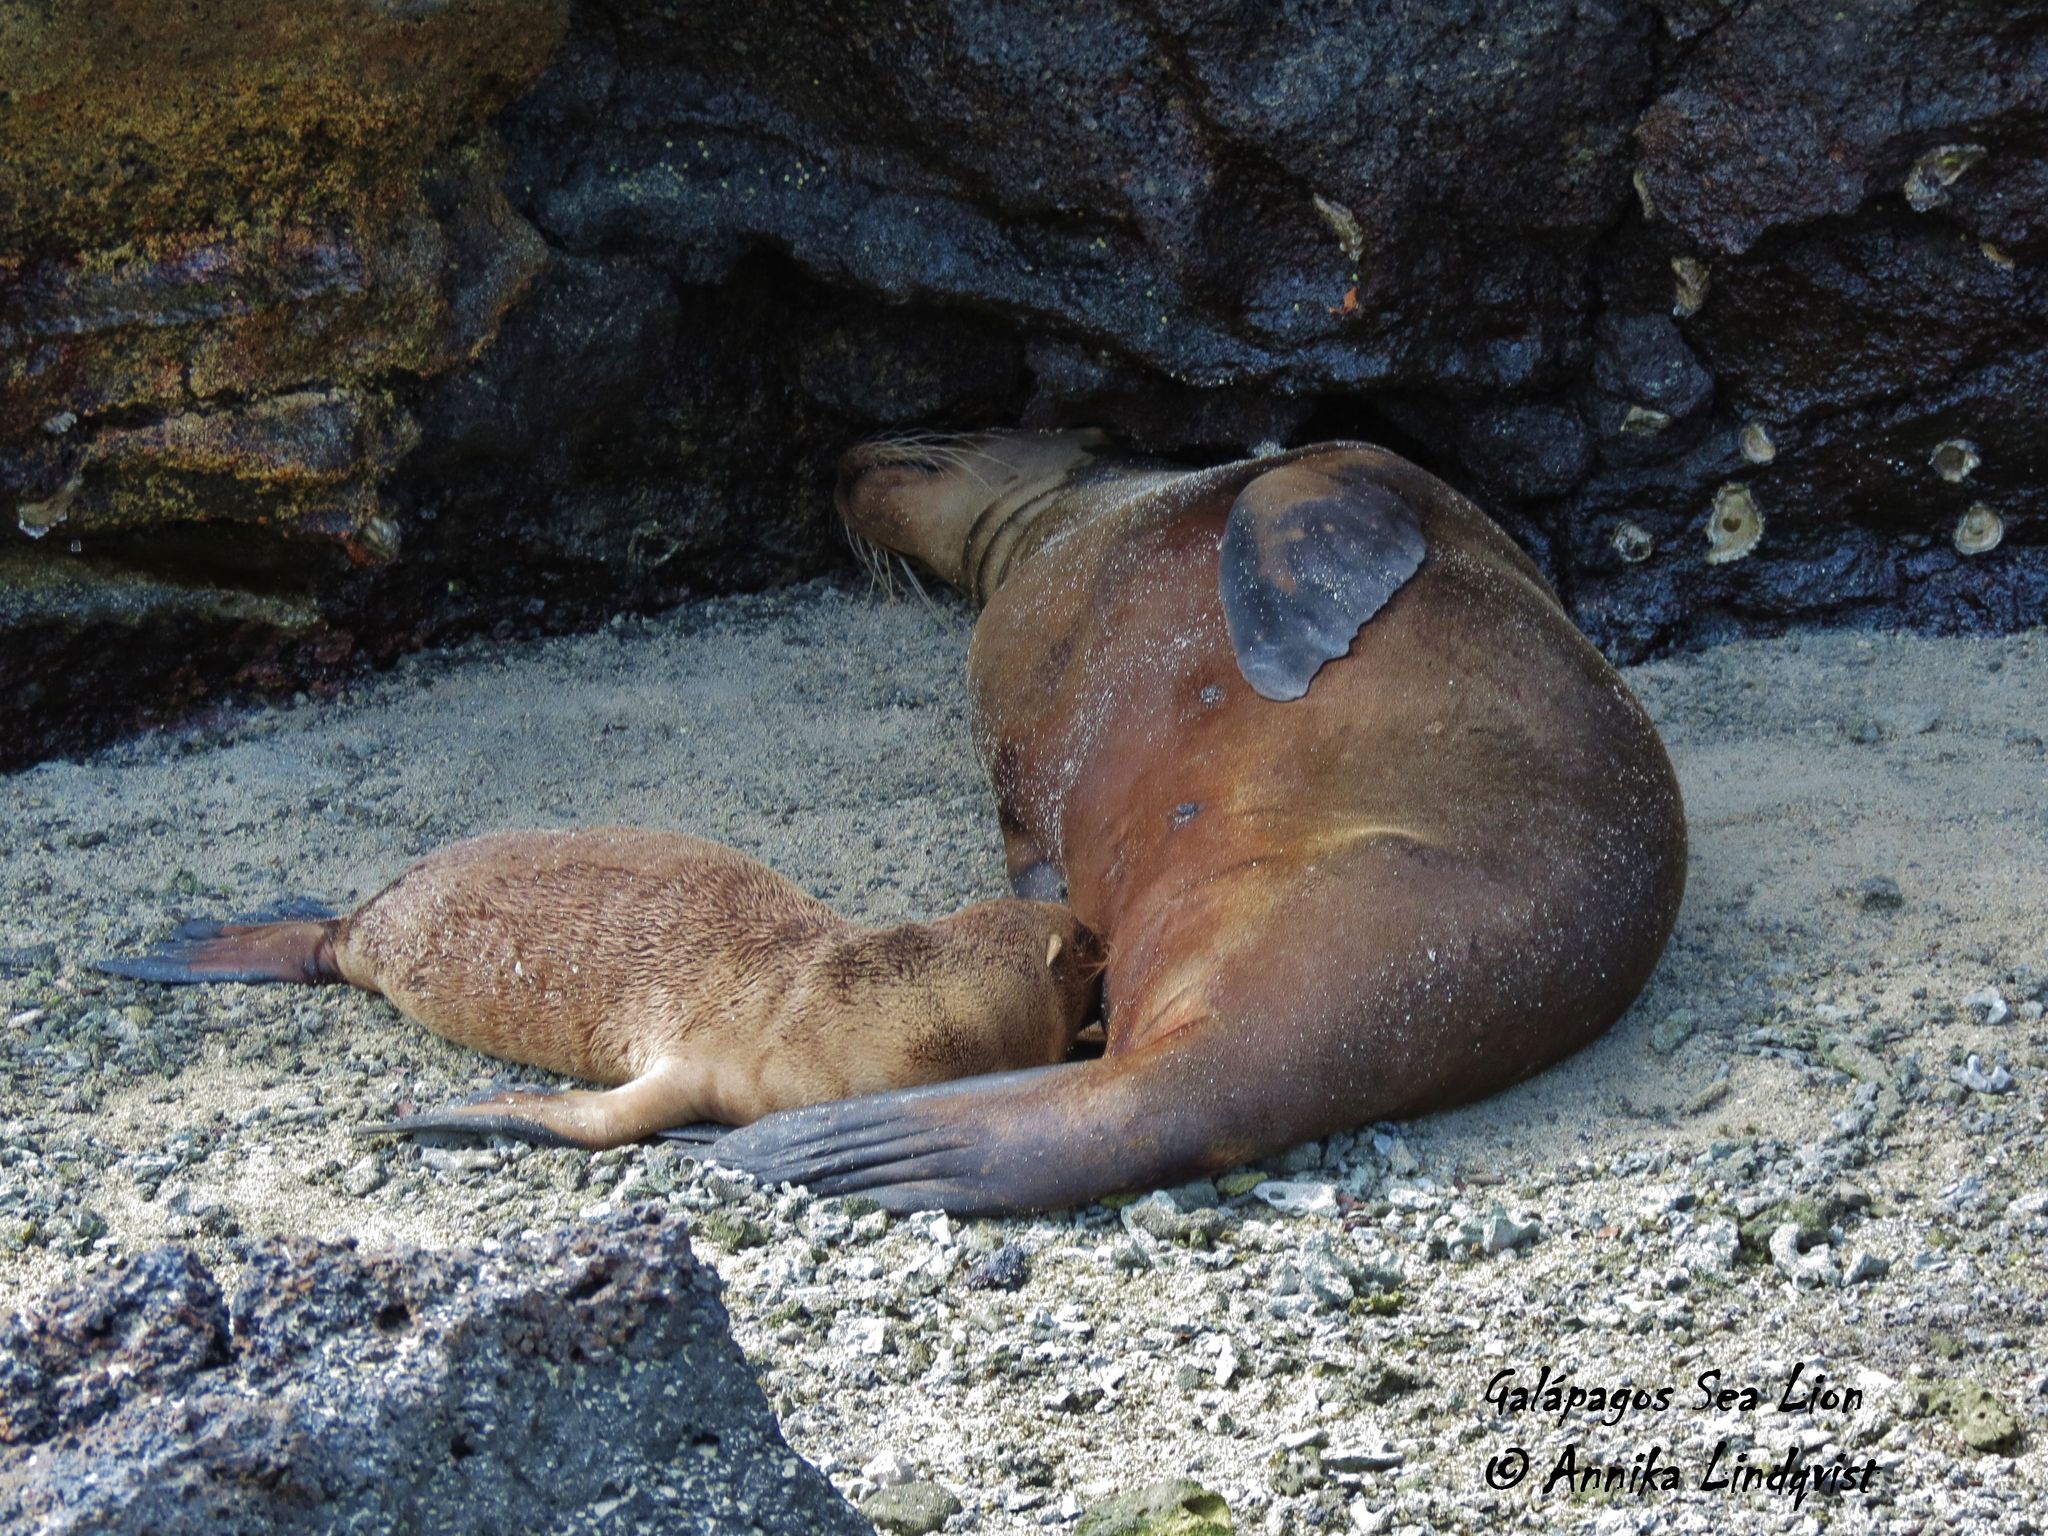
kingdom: Animalia
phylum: Chordata
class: Mammalia
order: Carnivora
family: Otariidae
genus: Zalophus
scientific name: Zalophus wollebaeki
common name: Galapagos sea lion
